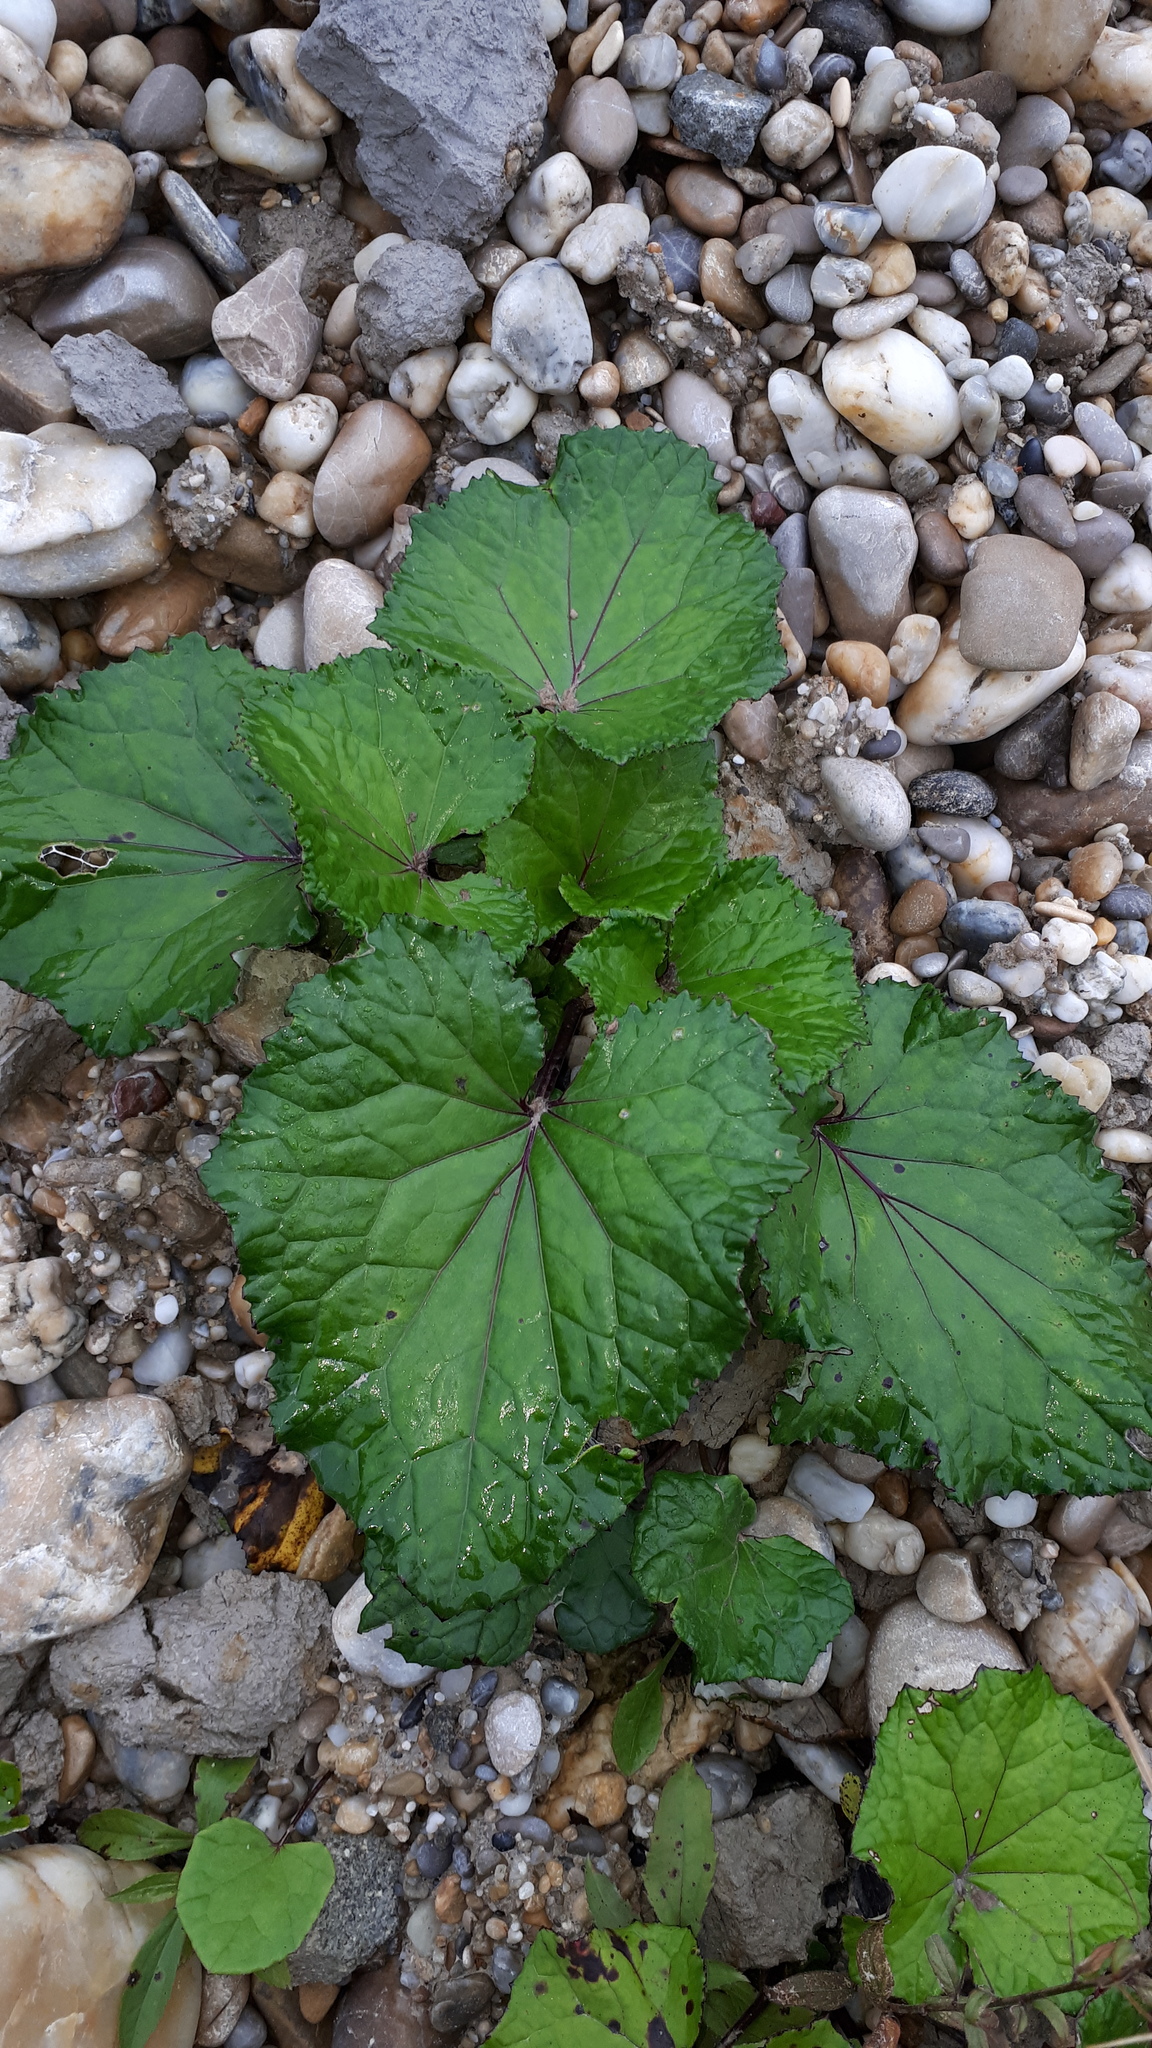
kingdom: Plantae
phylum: Tracheophyta
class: Magnoliopsida
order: Asterales
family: Asteraceae
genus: Tussilago
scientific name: Tussilago farfara
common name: Coltsfoot
